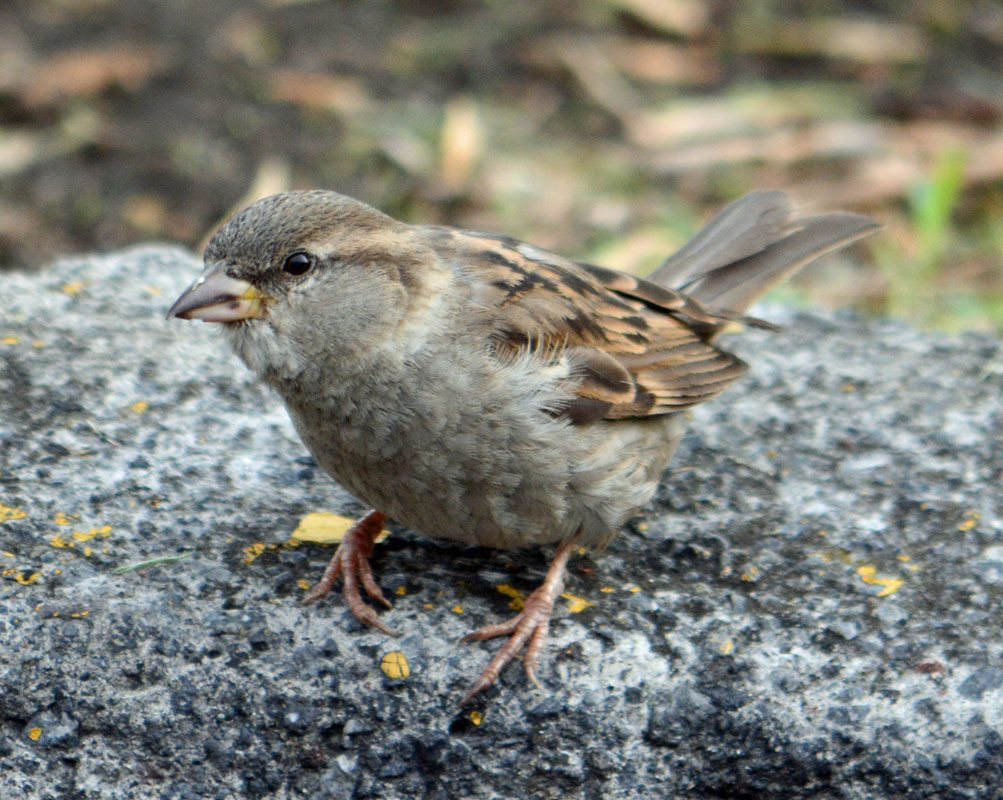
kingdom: Animalia
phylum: Chordata
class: Aves
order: Passeriformes
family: Passeridae
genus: Passer
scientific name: Passer domesticus
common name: House sparrow
